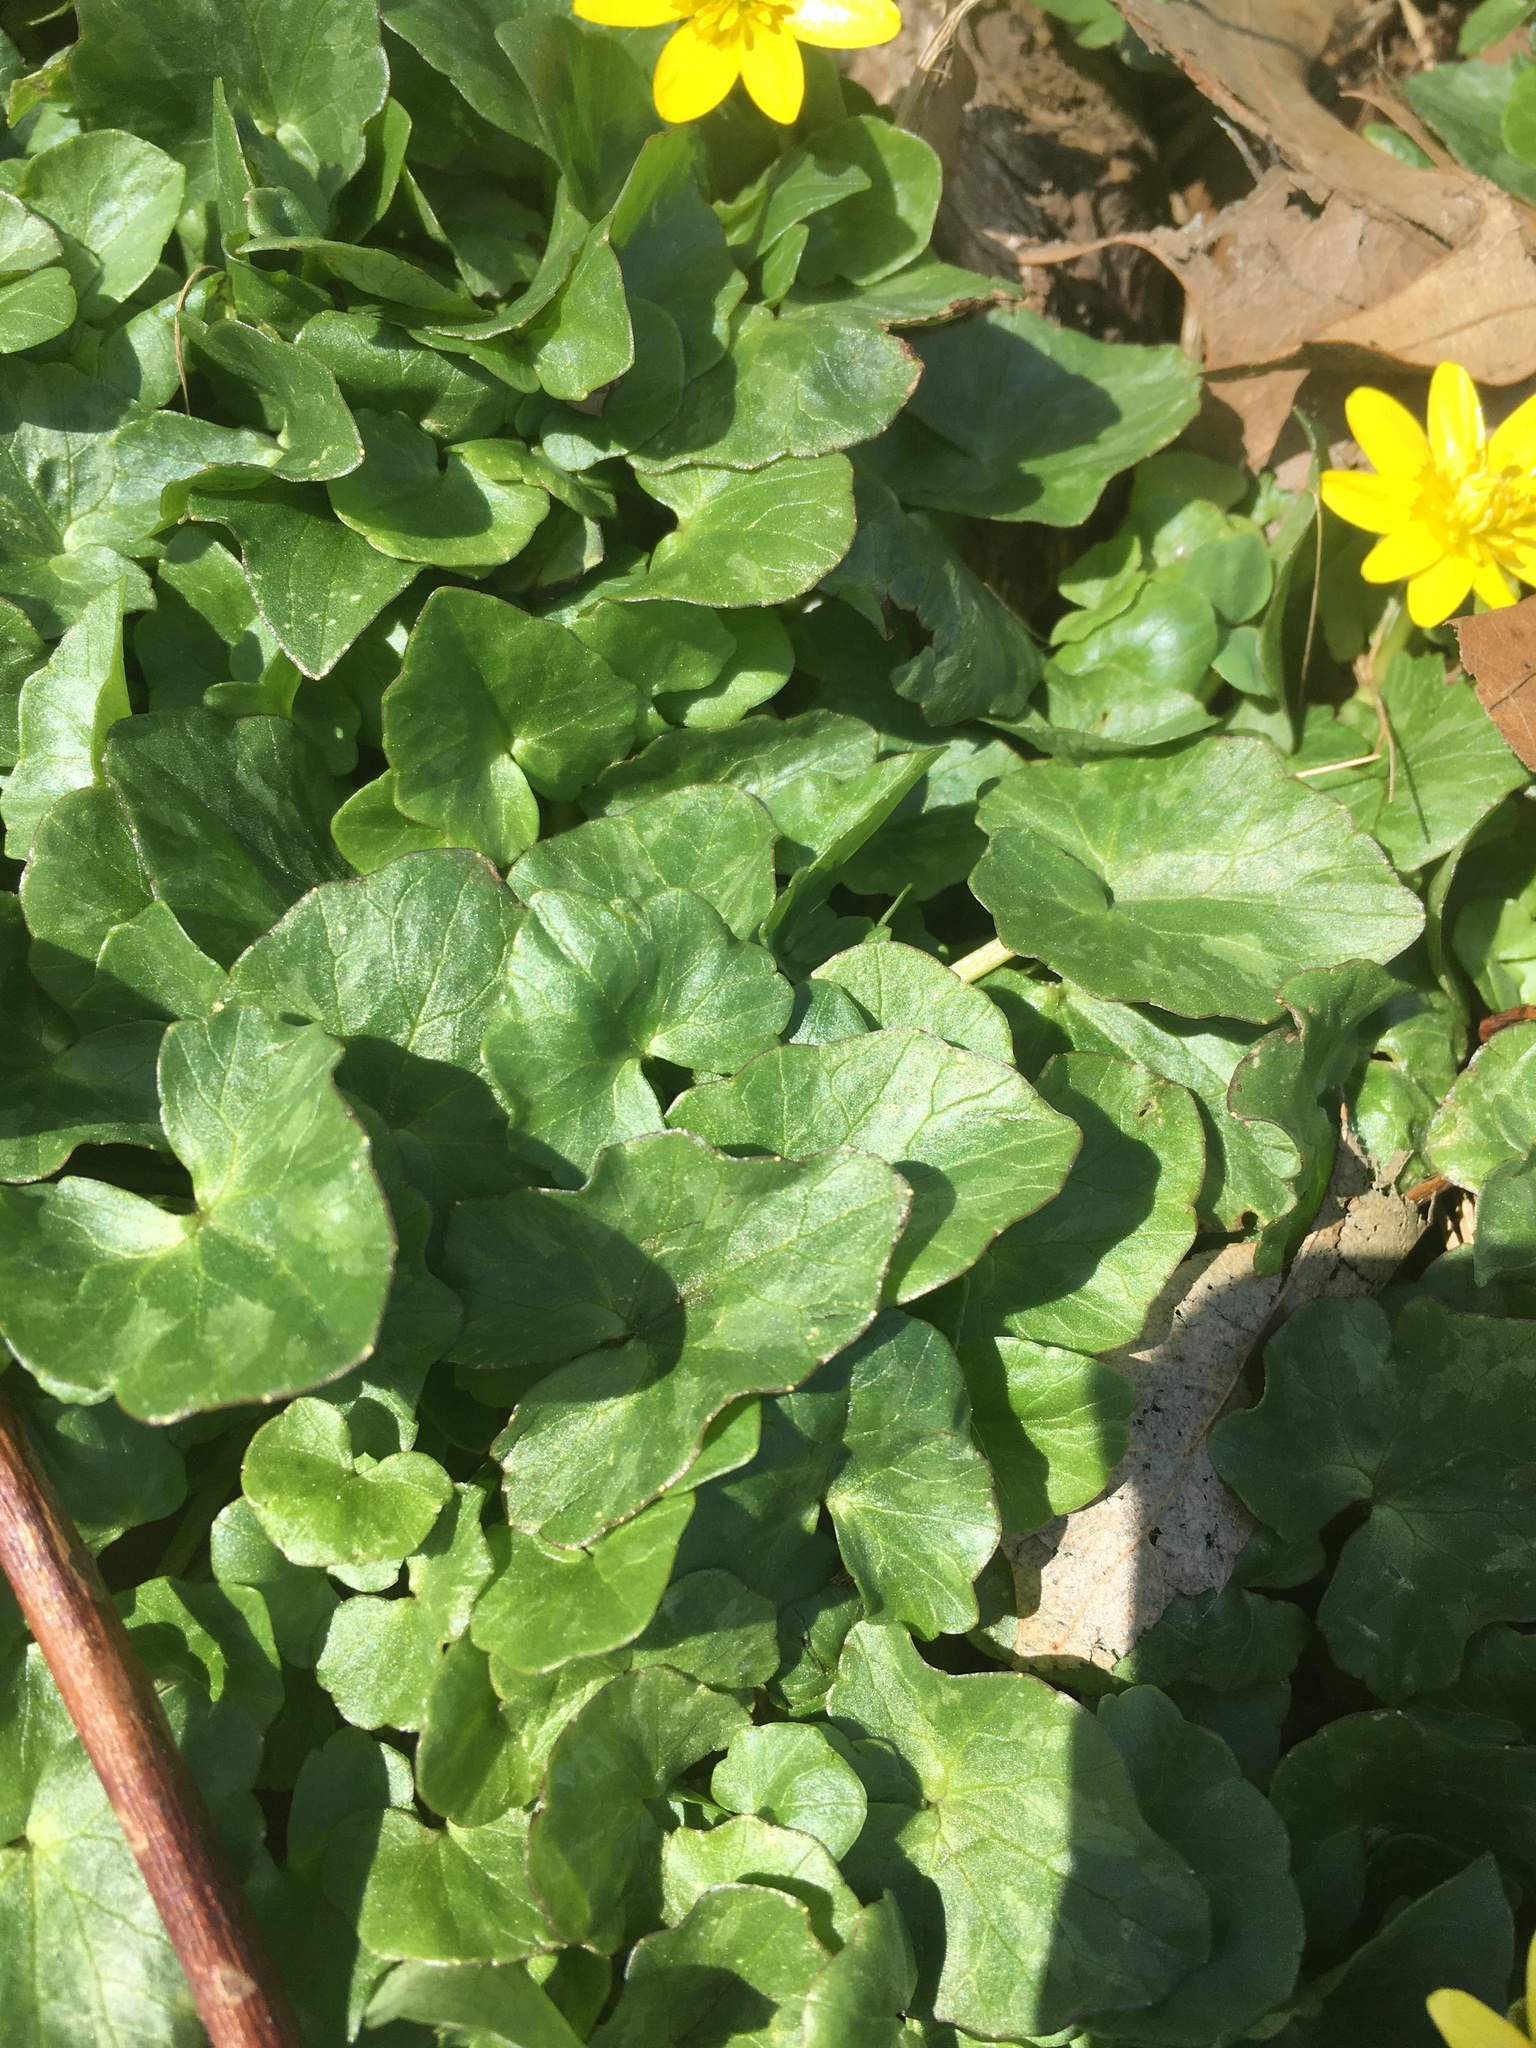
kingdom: Plantae
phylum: Tracheophyta
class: Magnoliopsida
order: Ranunculales
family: Ranunculaceae
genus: Ficaria
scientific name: Ficaria verna
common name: Lesser celandine
